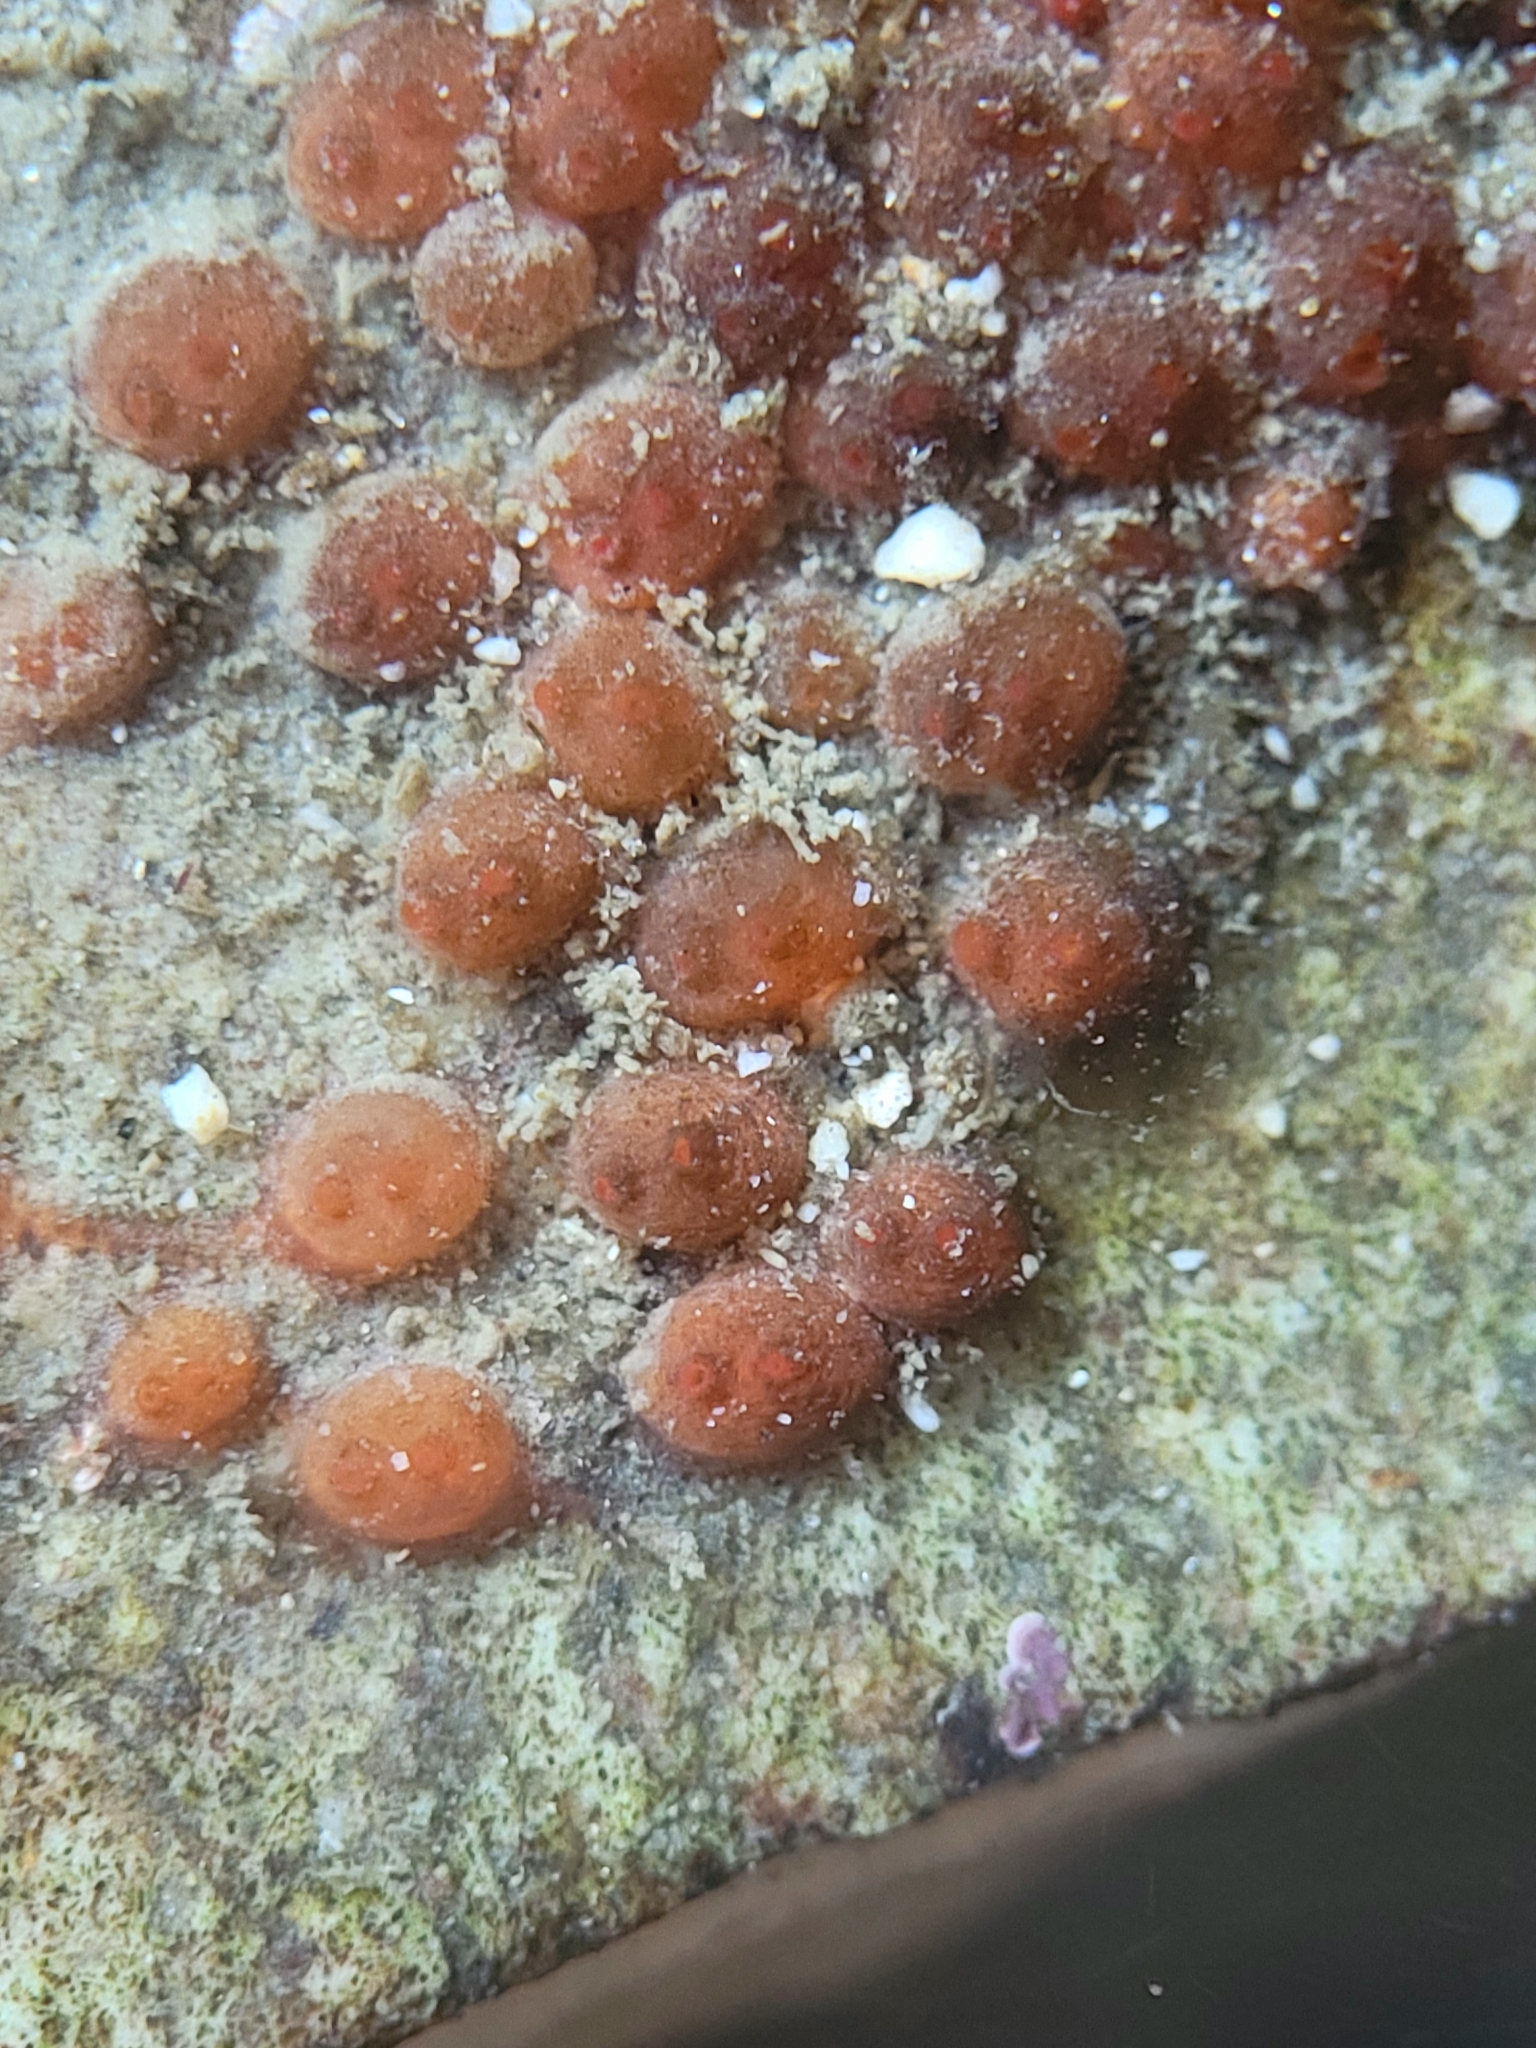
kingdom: Animalia
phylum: Chordata
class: Ascidiacea
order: Stolidobranchia
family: Styelidae
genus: Metandrocarpa
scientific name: Metandrocarpa taylori
